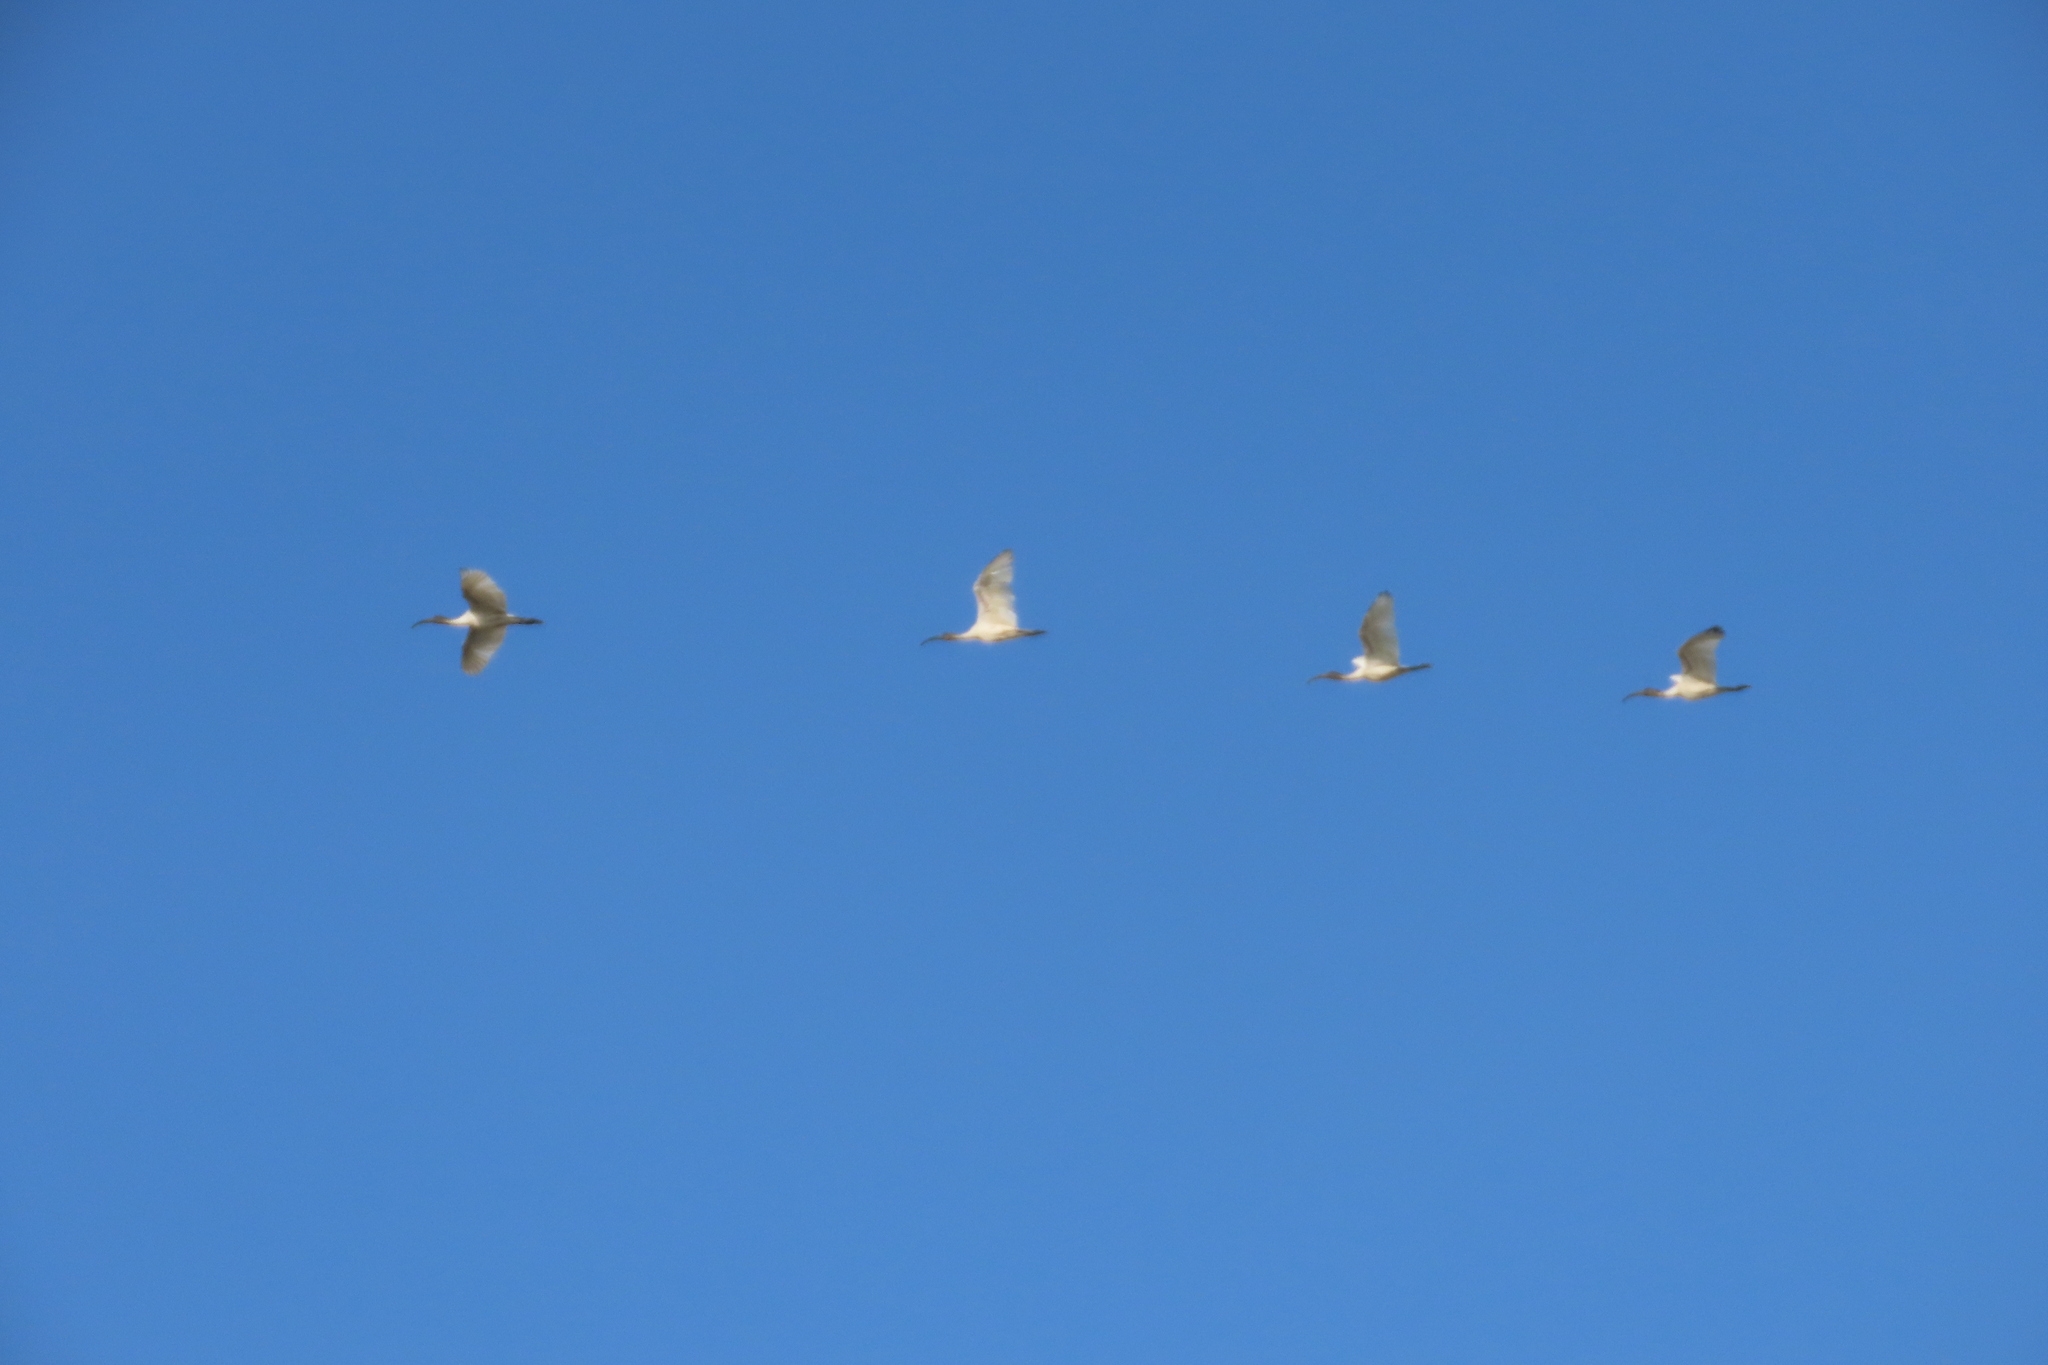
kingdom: Animalia
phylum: Chordata
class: Aves
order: Pelecaniformes
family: Threskiornithidae
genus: Threskiornis
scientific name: Threskiornis melanocephalus
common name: Black-headed ibis
